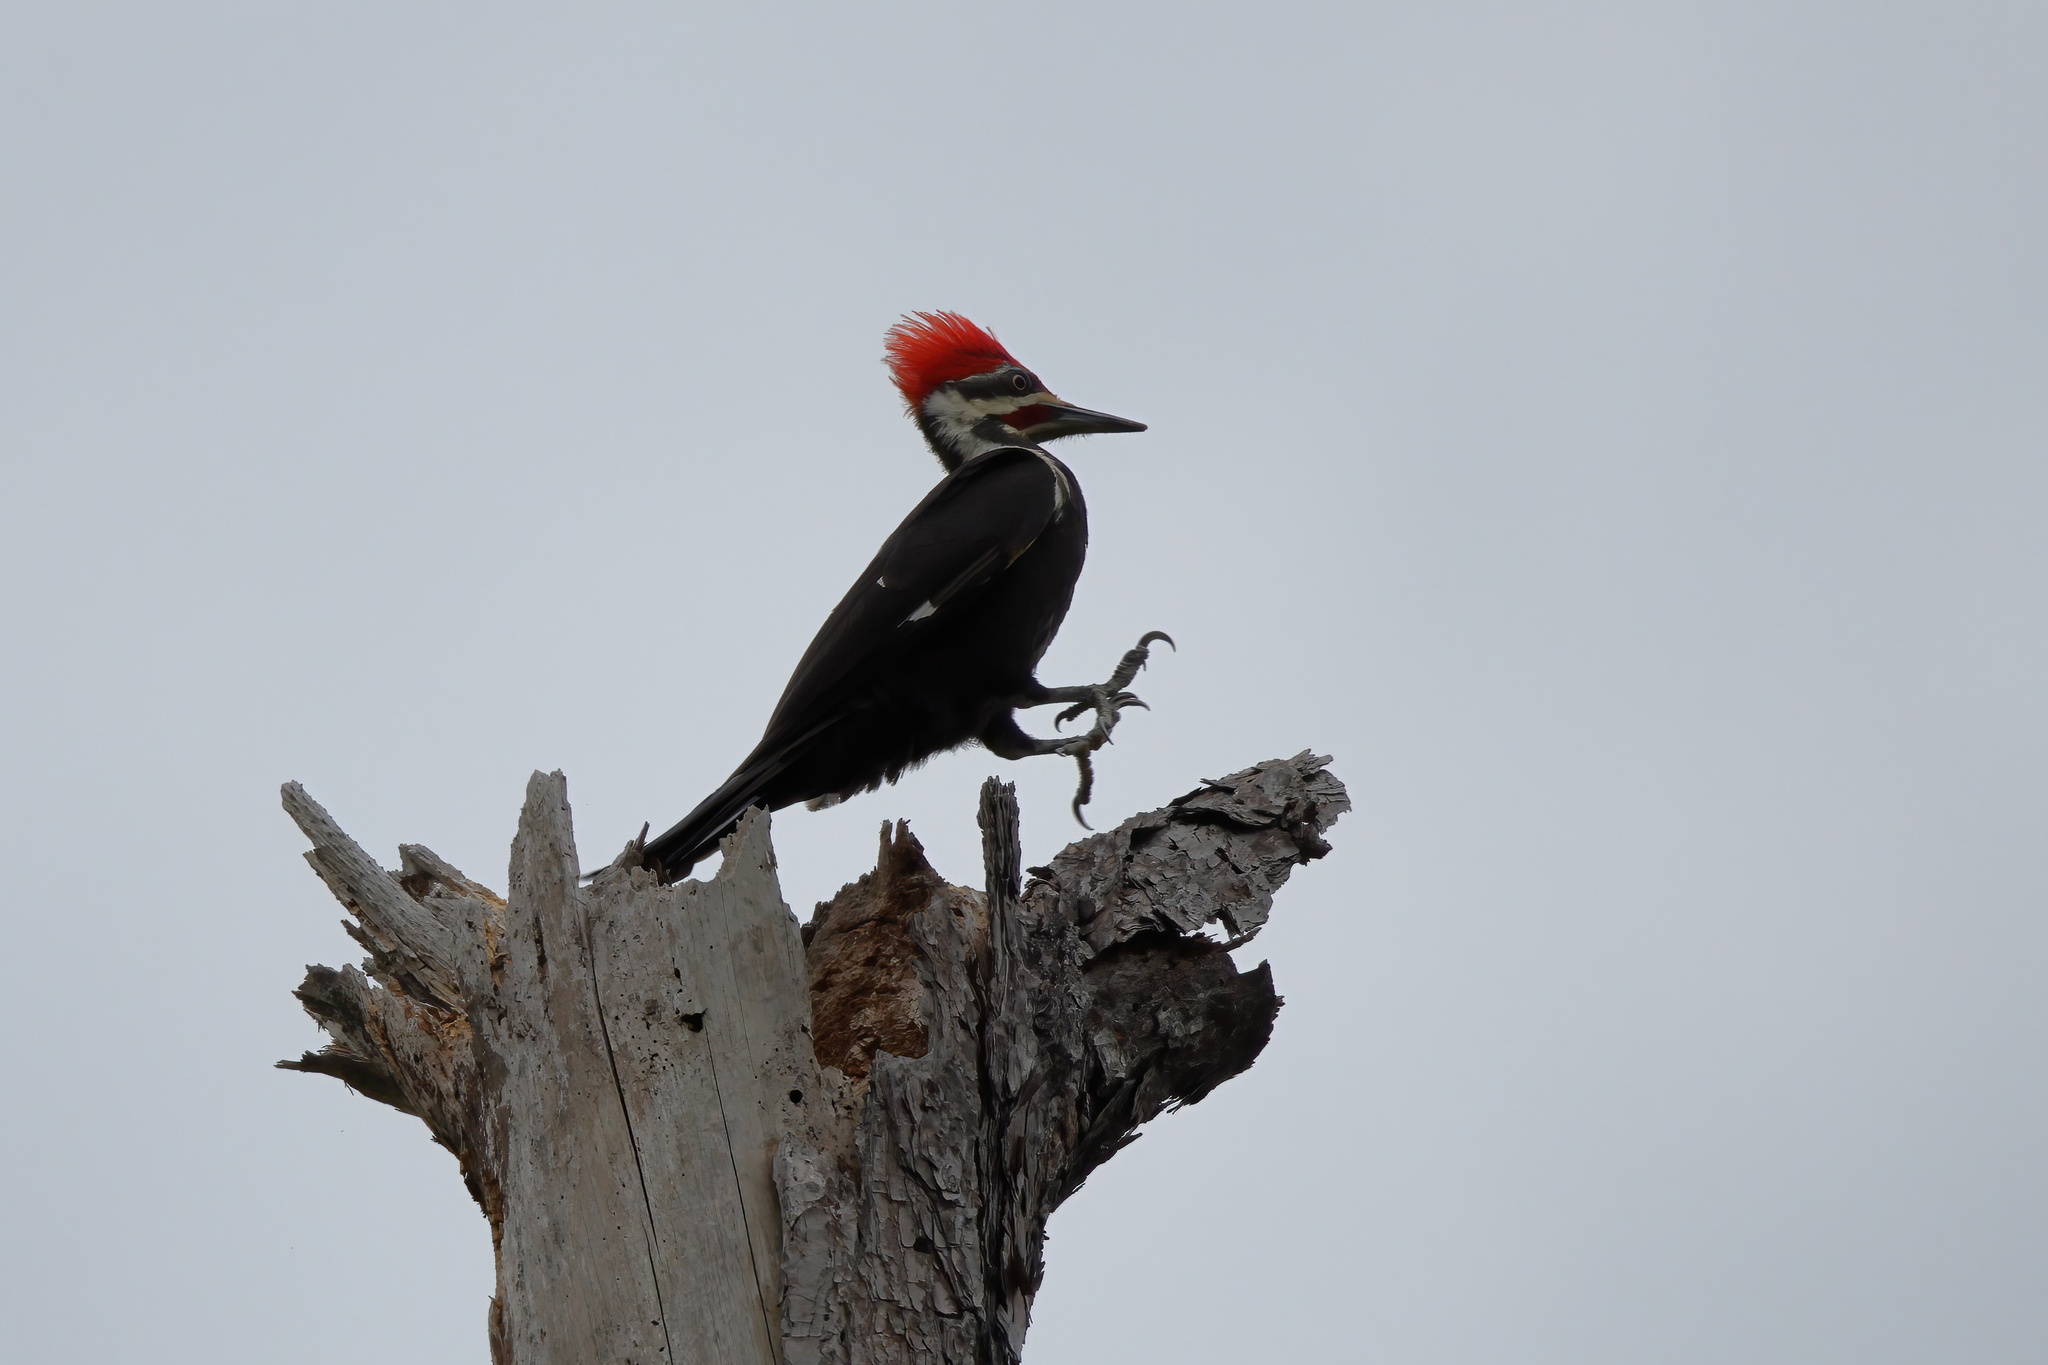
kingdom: Animalia
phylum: Chordata
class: Aves
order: Piciformes
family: Picidae
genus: Dryocopus
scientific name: Dryocopus pileatus
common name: Pileated woodpecker
